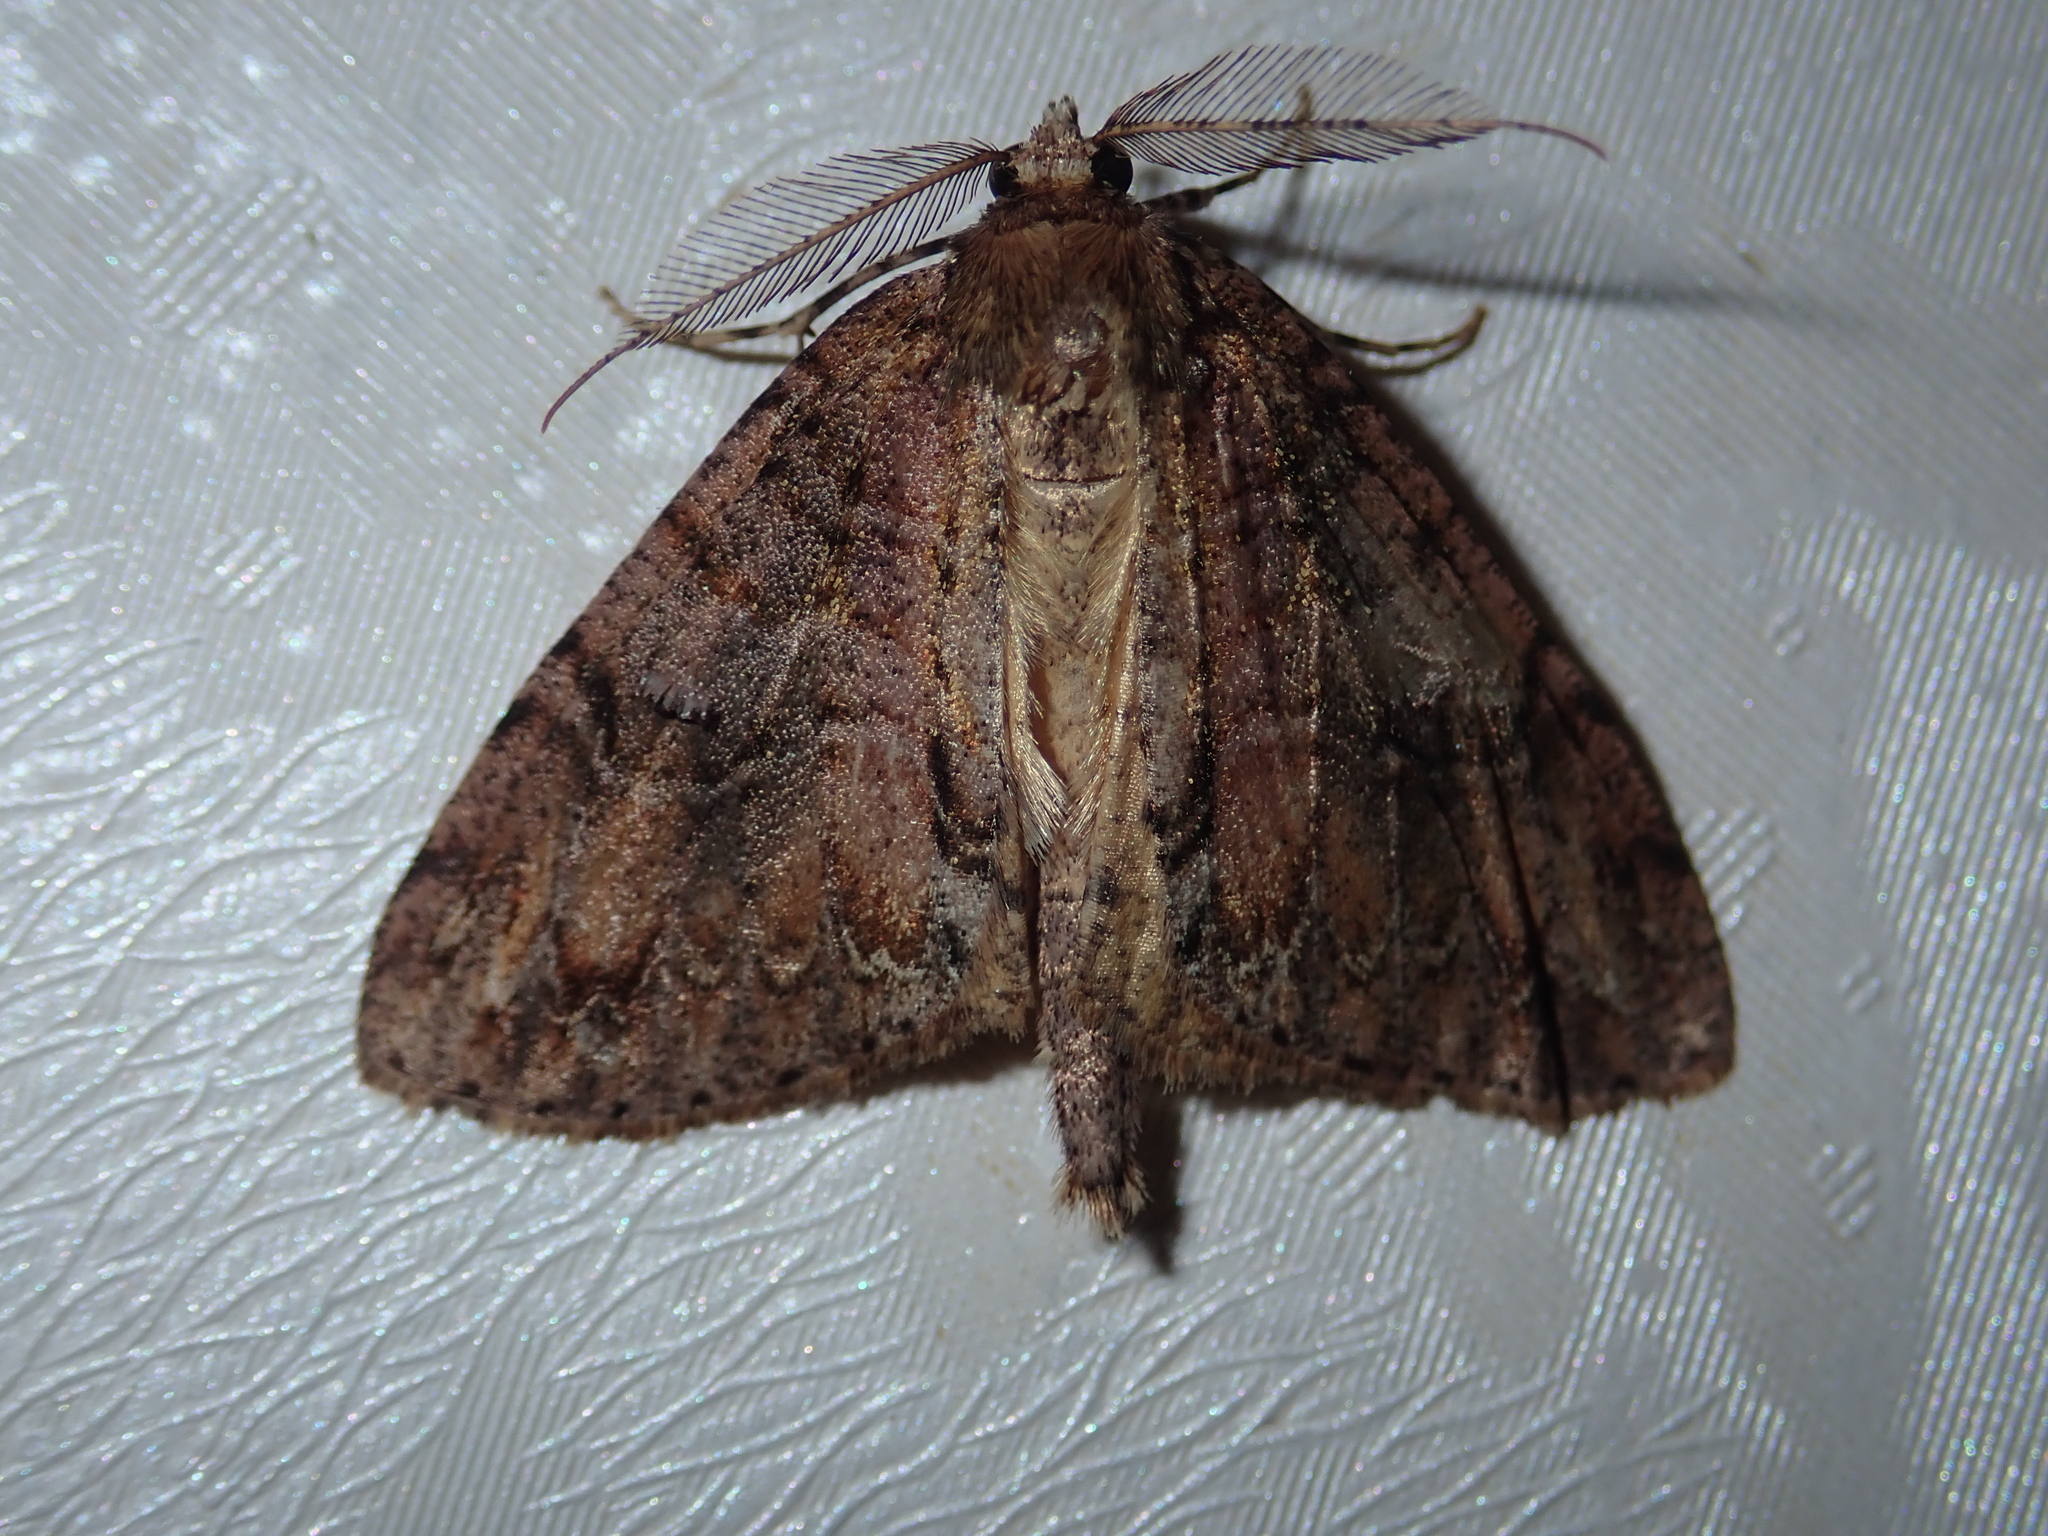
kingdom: Animalia
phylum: Arthropoda
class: Insecta
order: Lepidoptera
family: Geometridae
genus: Pseudocoremia
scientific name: Pseudocoremia suavis
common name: Common forest looper
